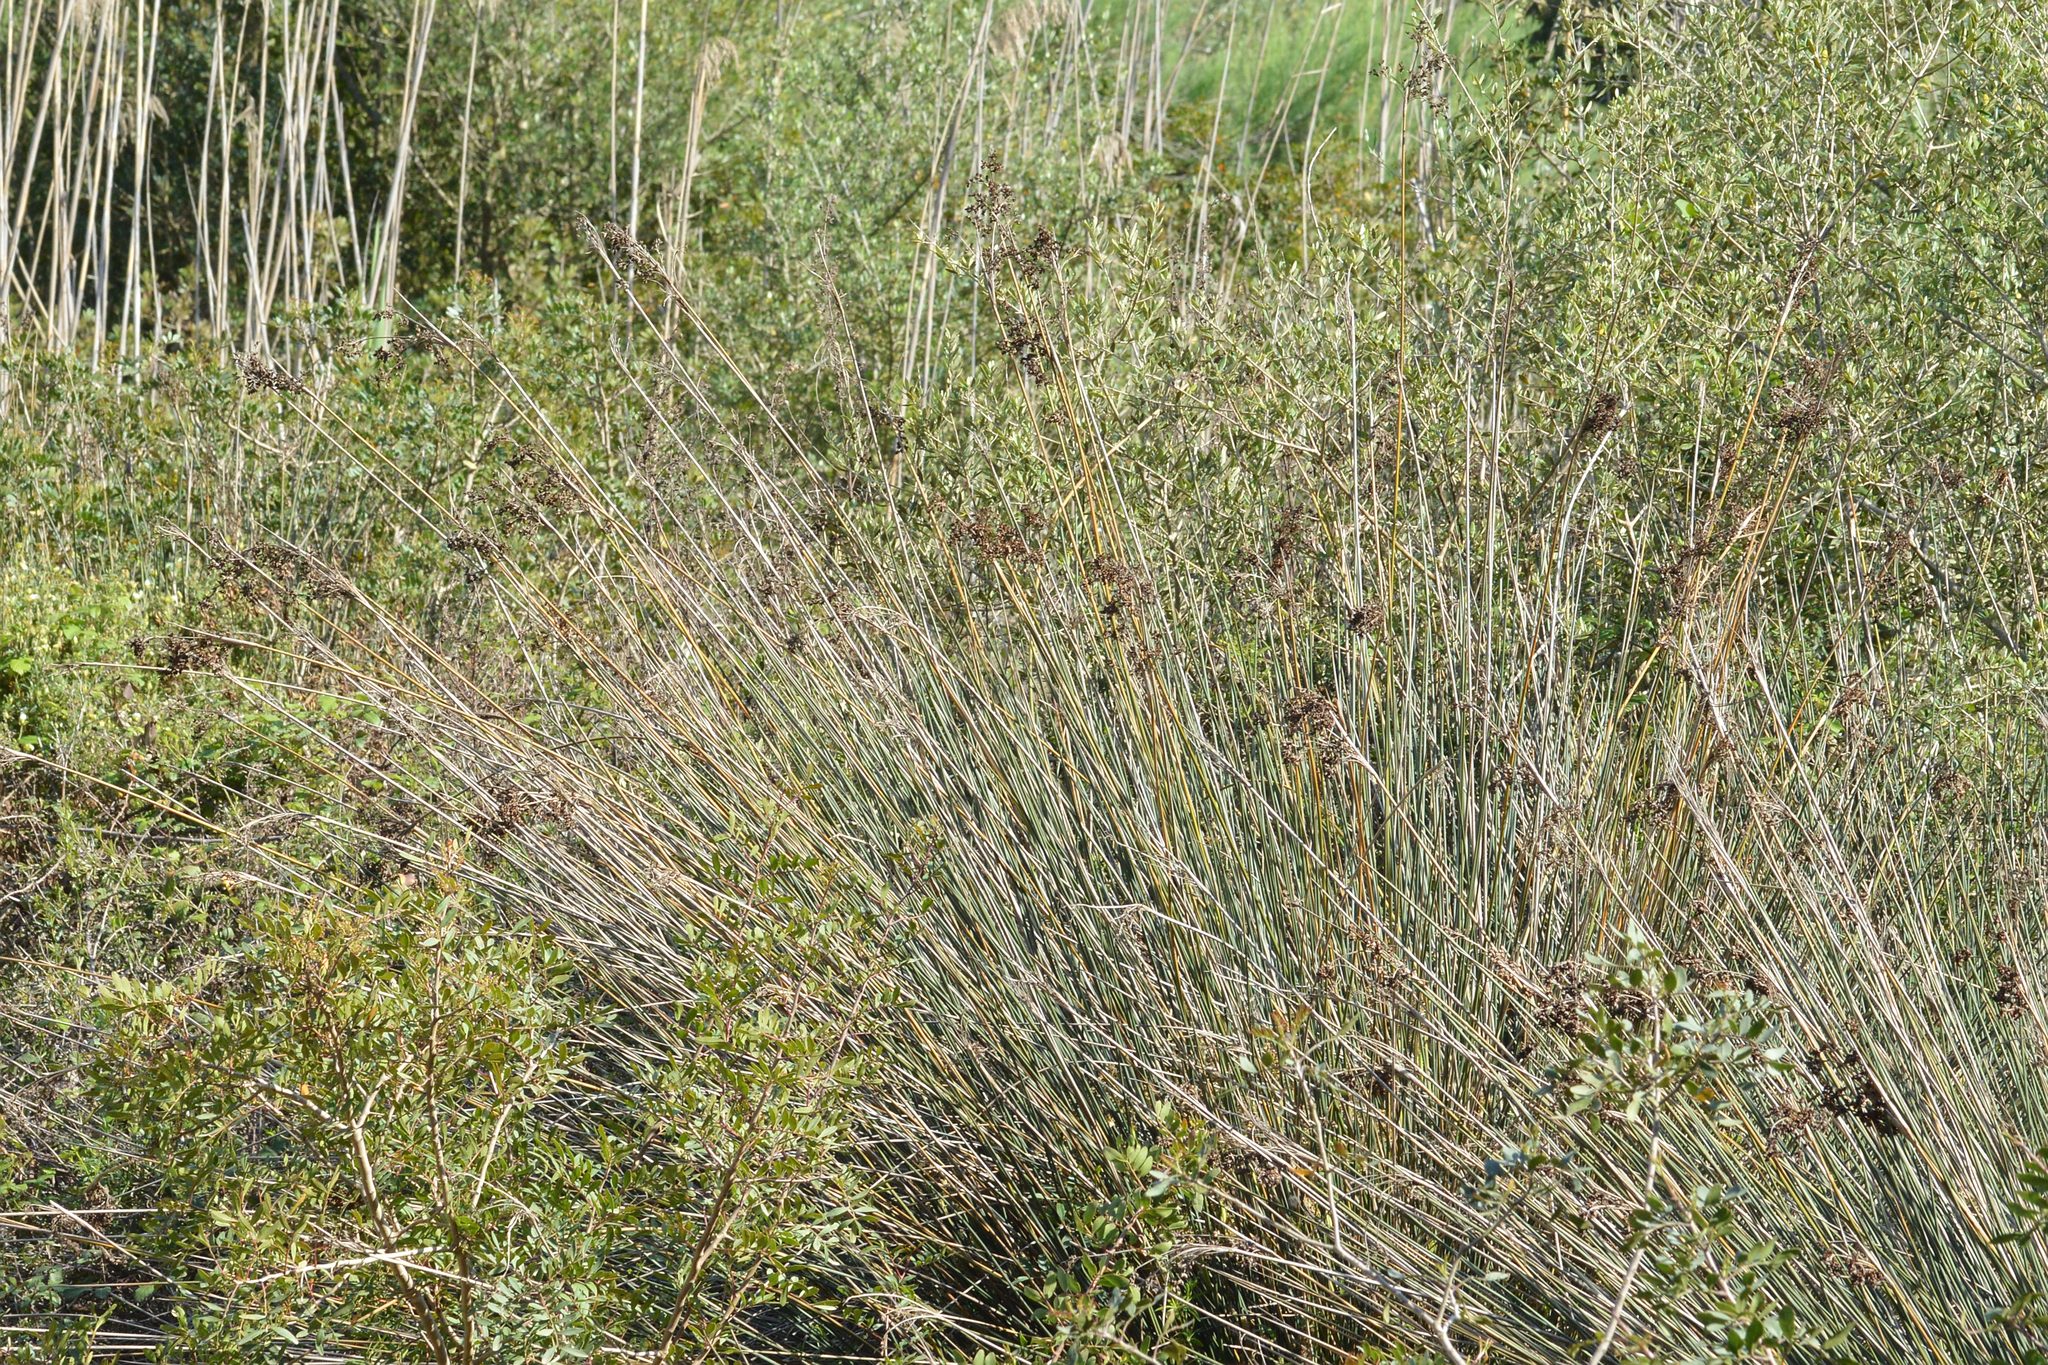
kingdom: Plantae
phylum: Tracheophyta
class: Liliopsida
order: Poales
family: Juncaceae
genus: Juncus
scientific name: Juncus acutus
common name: Sharp rush
